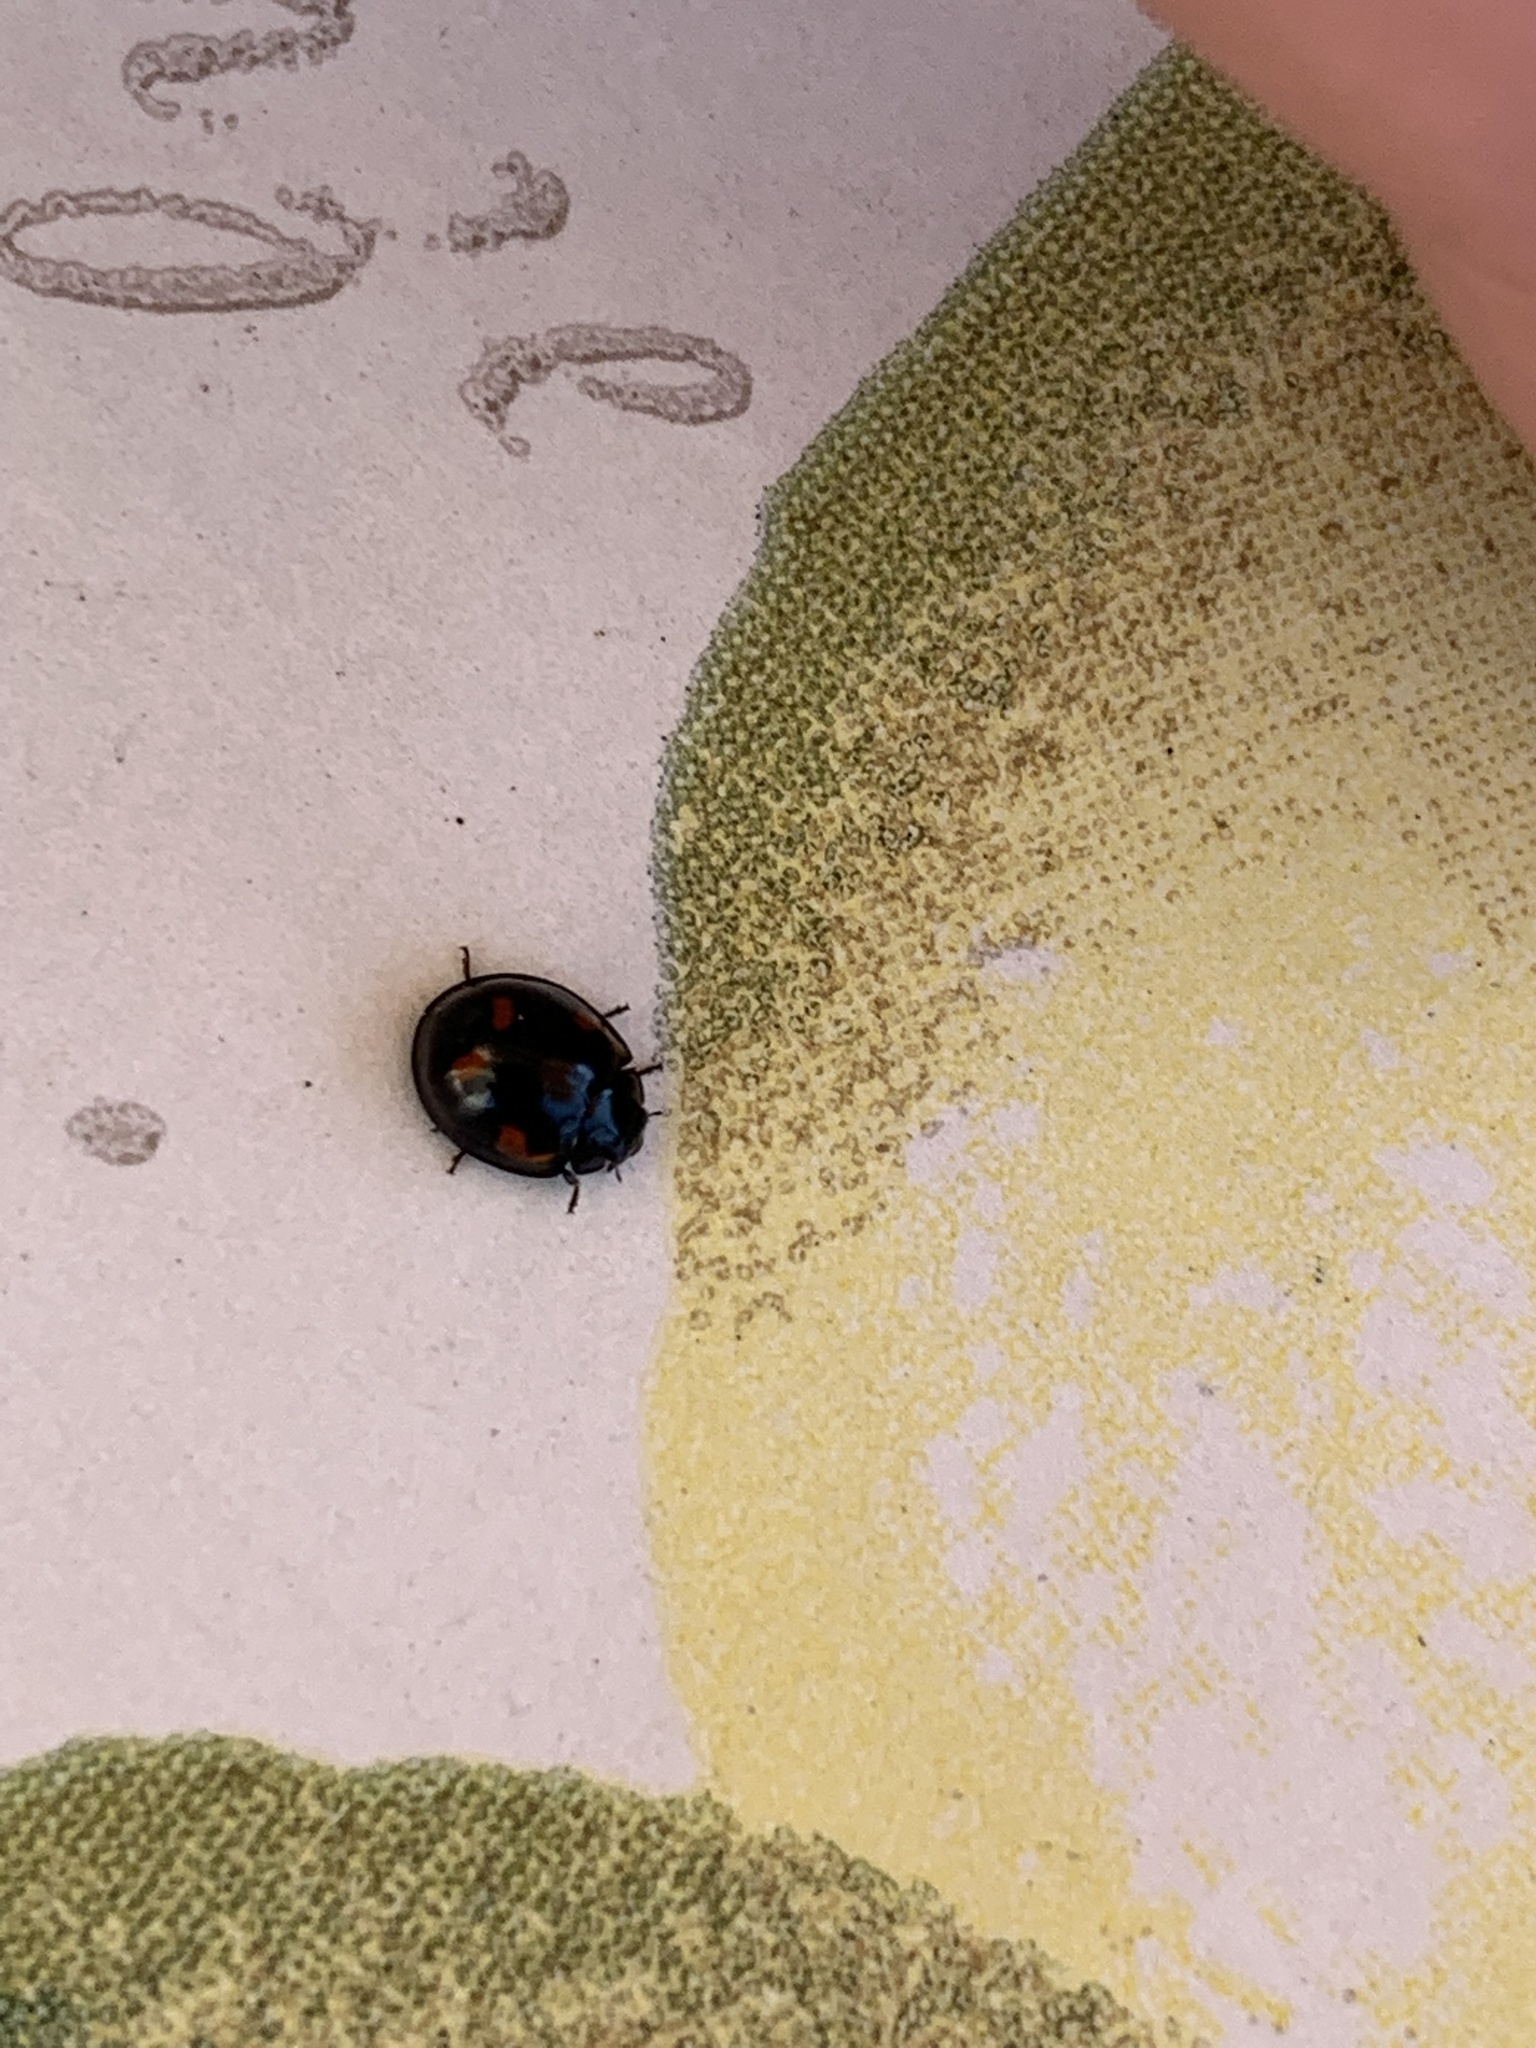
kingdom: Animalia
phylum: Arthropoda
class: Insecta
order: Coleoptera
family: Coccinellidae
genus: Brumus
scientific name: Brumus quadripustulatus
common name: Ladybird beetle
